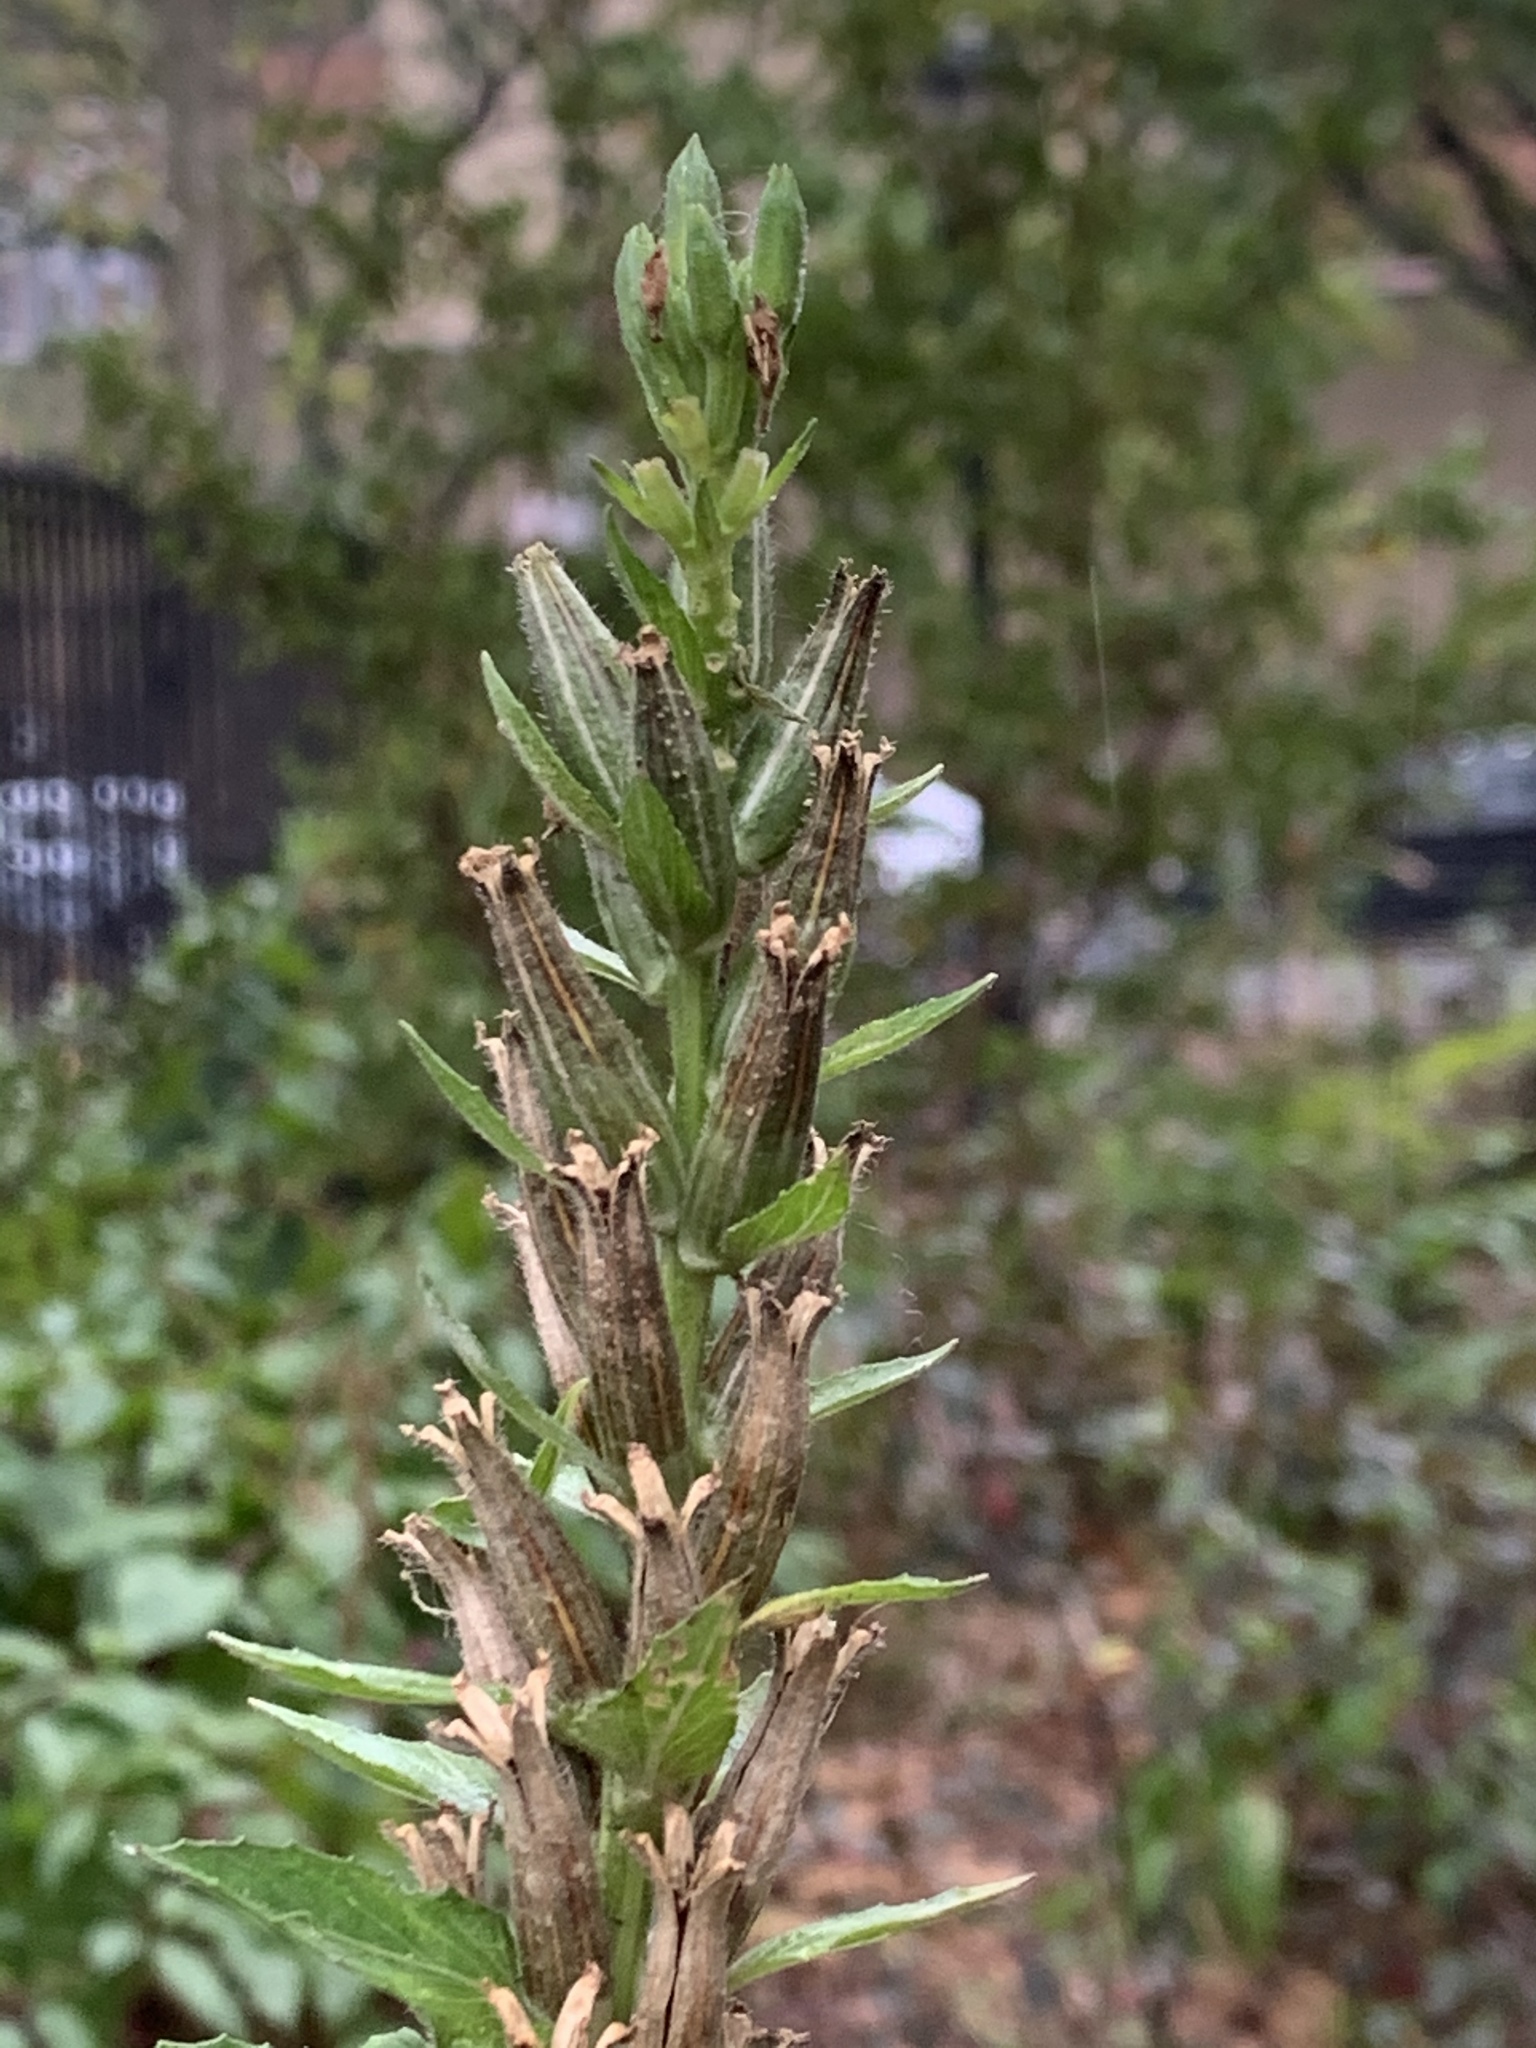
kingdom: Plantae
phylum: Tracheophyta
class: Magnoliopsida
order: Myrtales
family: Onagraceae
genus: Oenothera
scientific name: Oenothera biennis
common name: Common evening-primrose
